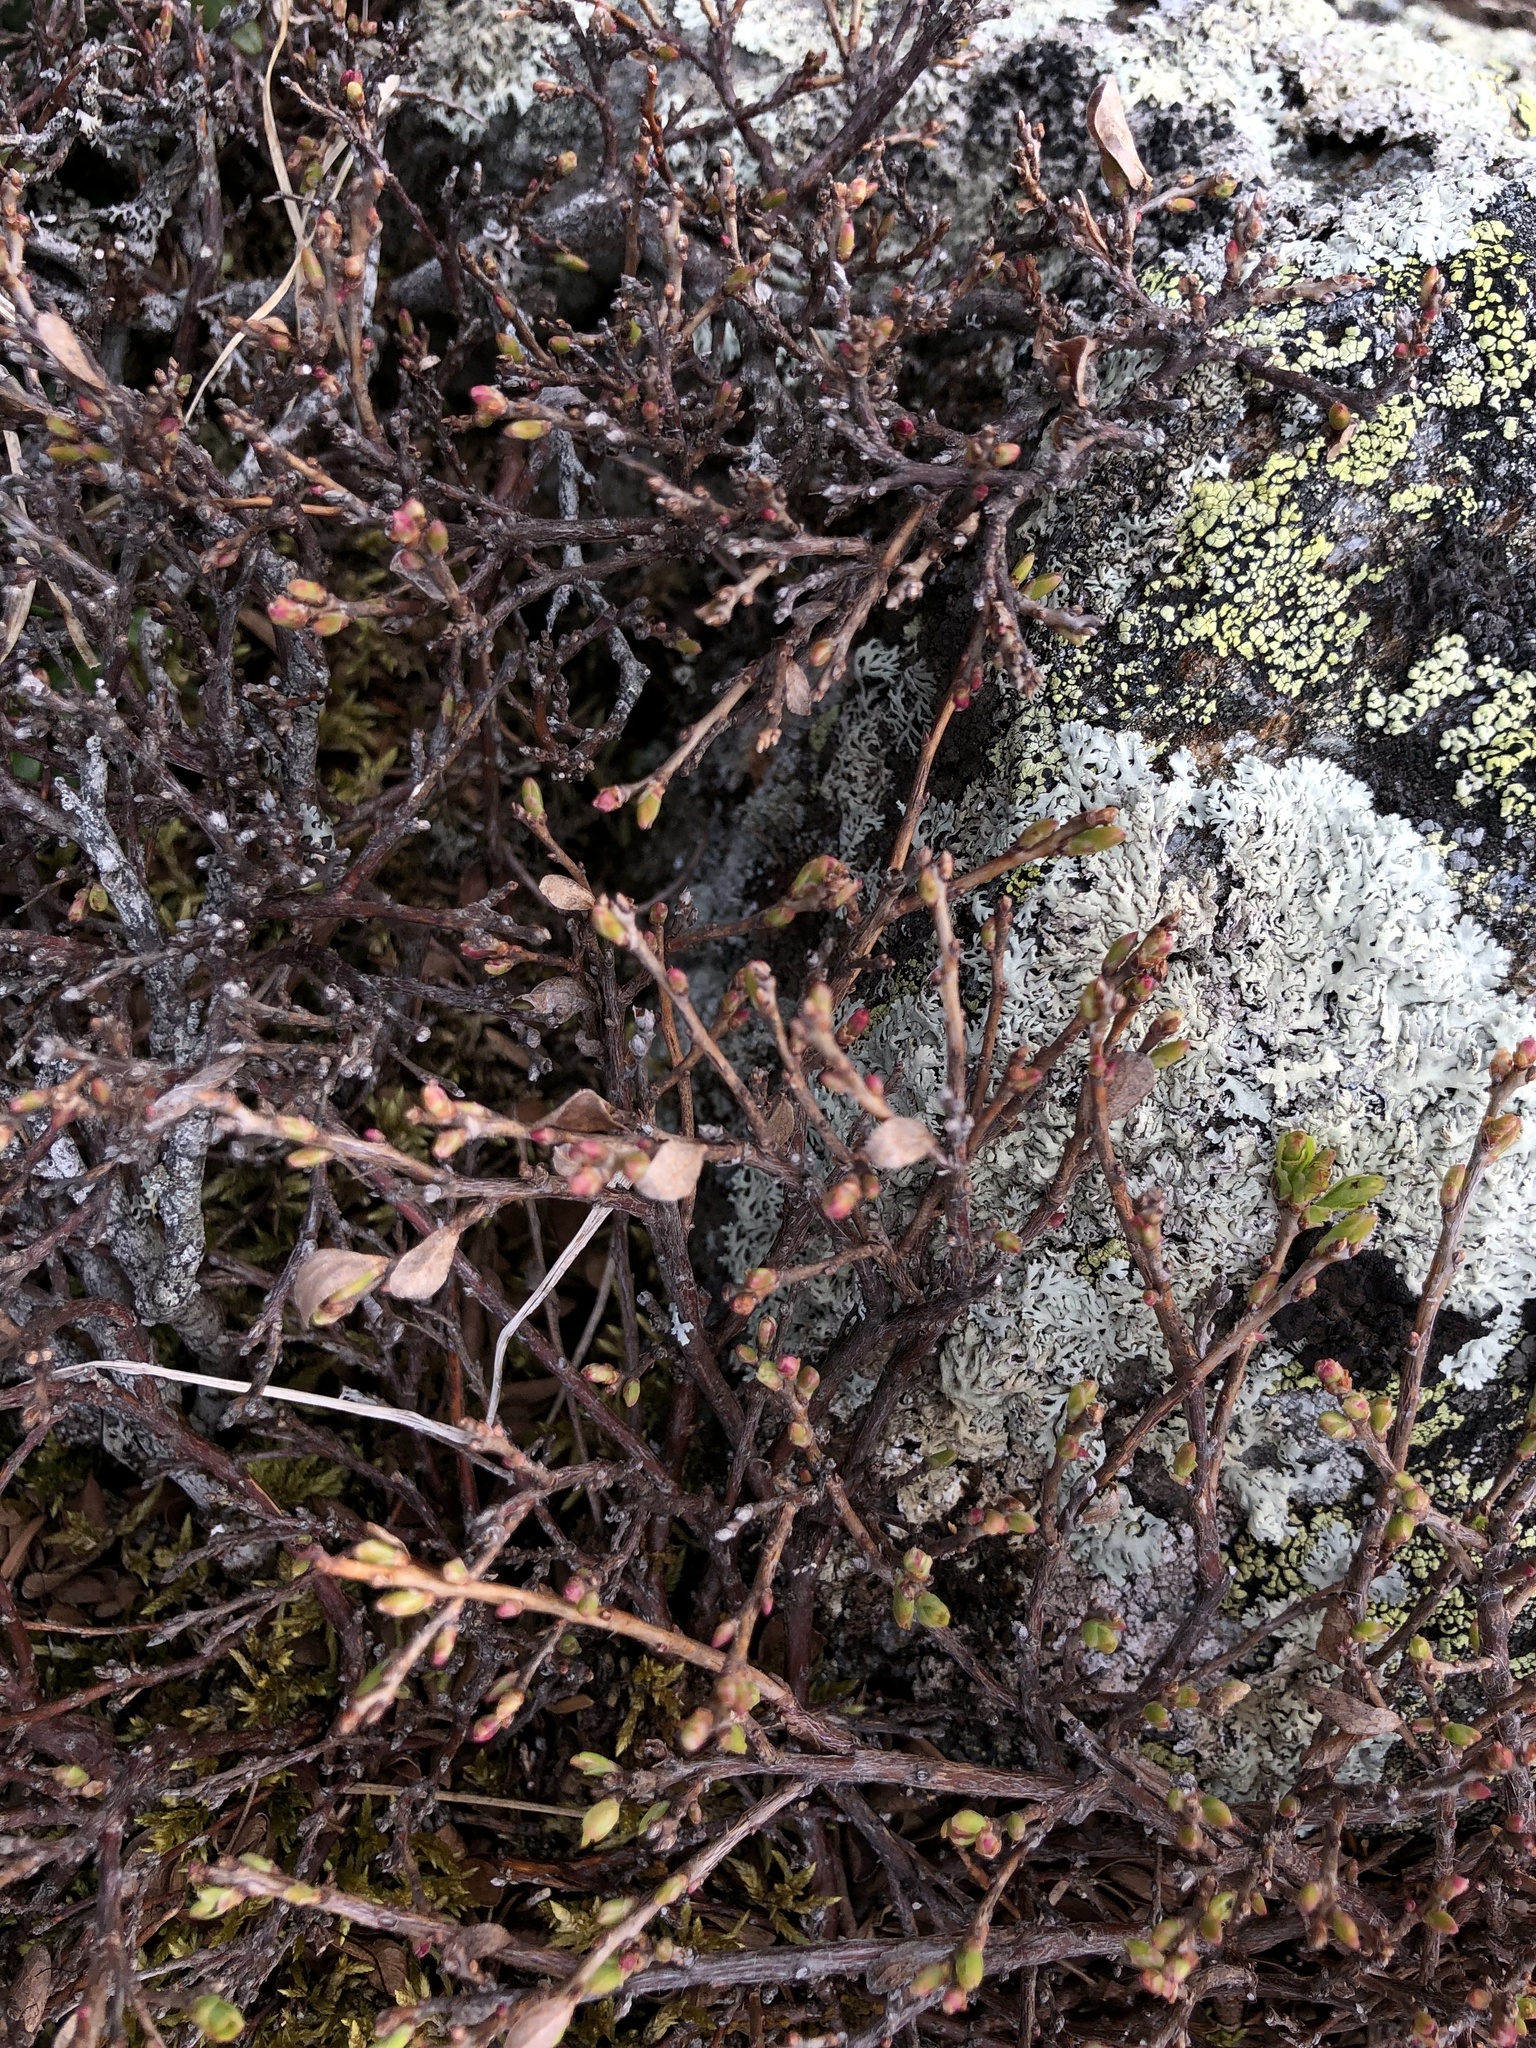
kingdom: Plantae
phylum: Tracheophyta
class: Magnoliopsida
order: Ericales
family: Ericaceae
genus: Vaccinium
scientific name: Vaccinium uliginosum
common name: Bog bilberry
